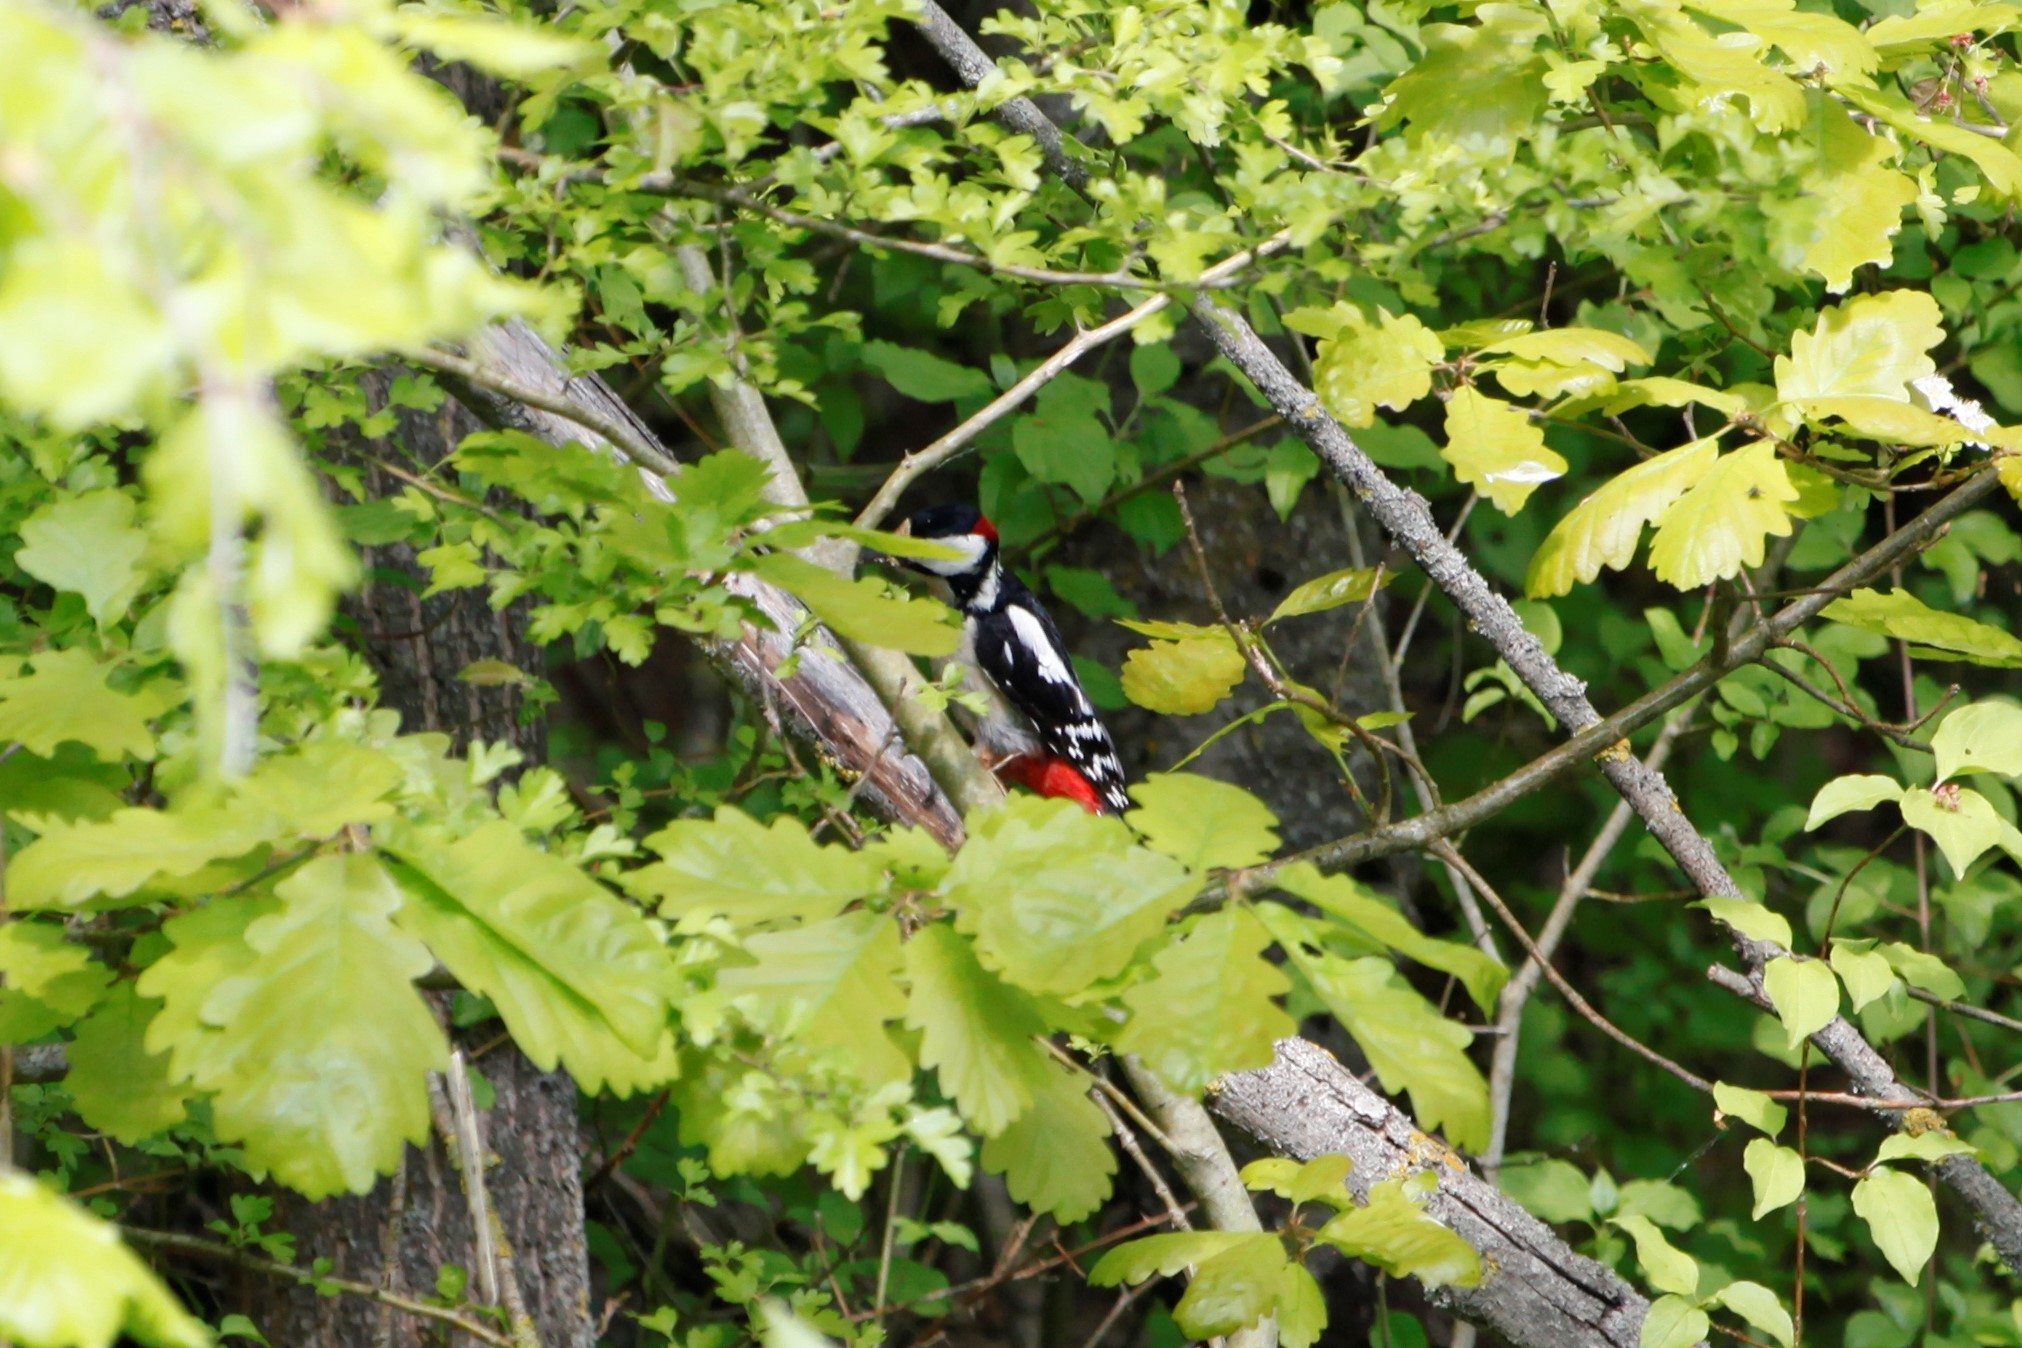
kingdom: Animalia
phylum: Chordata
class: Aves
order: Piciformes
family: Picidae
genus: Dendrocopos
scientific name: Dendrocopos major
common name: Great spotted woodpecker
